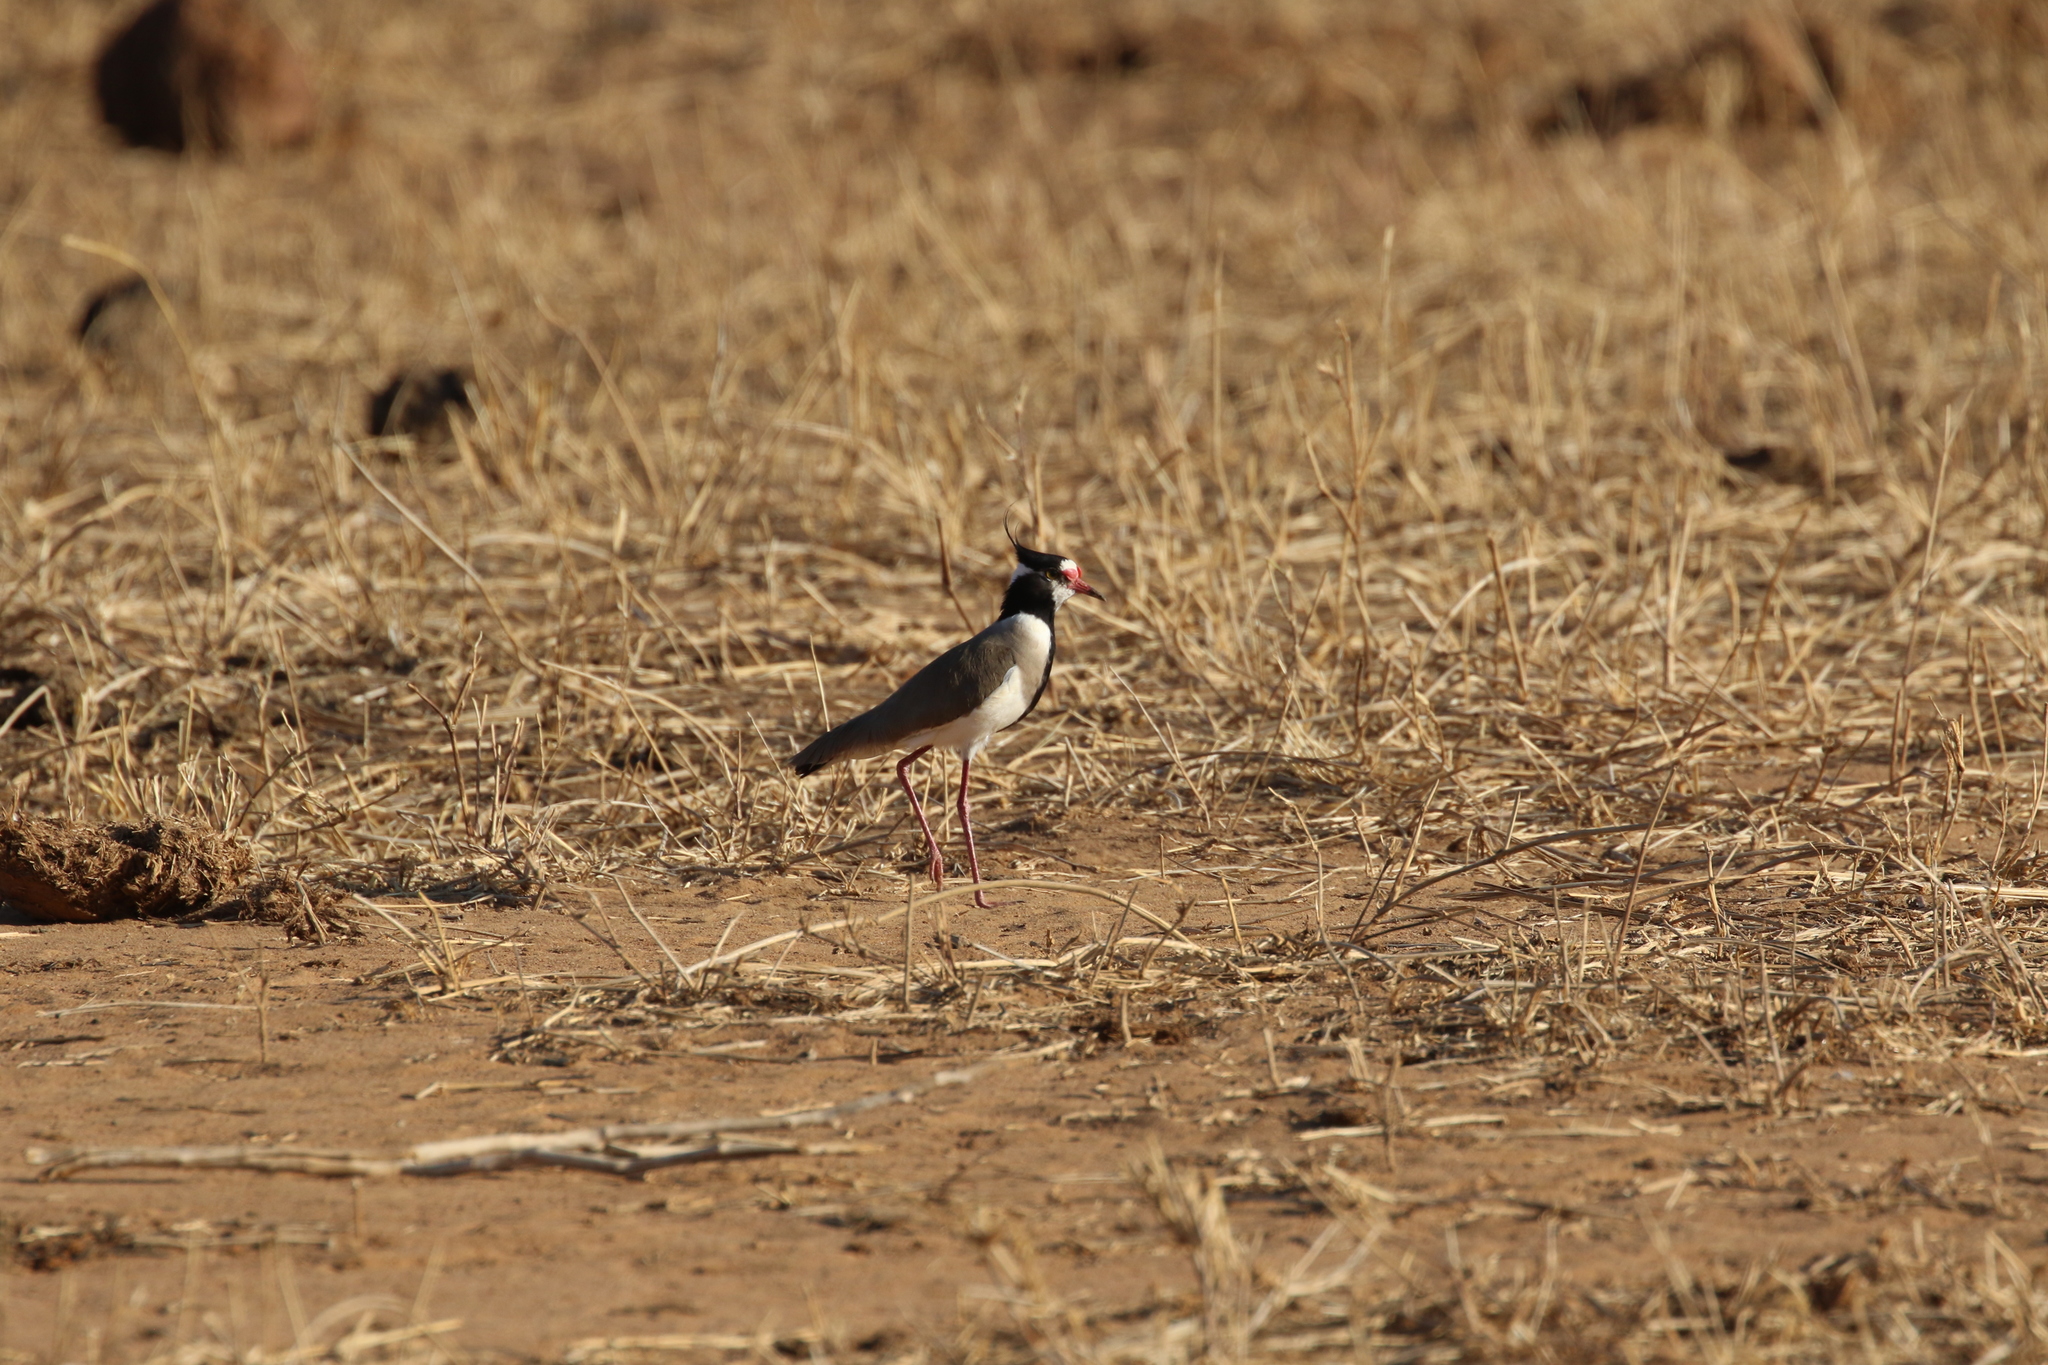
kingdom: Animalia
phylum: Chordata
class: Aves
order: Charadriiformes
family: Charadriidae
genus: Vanellus
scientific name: Vanellus tectus
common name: Black-headed lapwing
